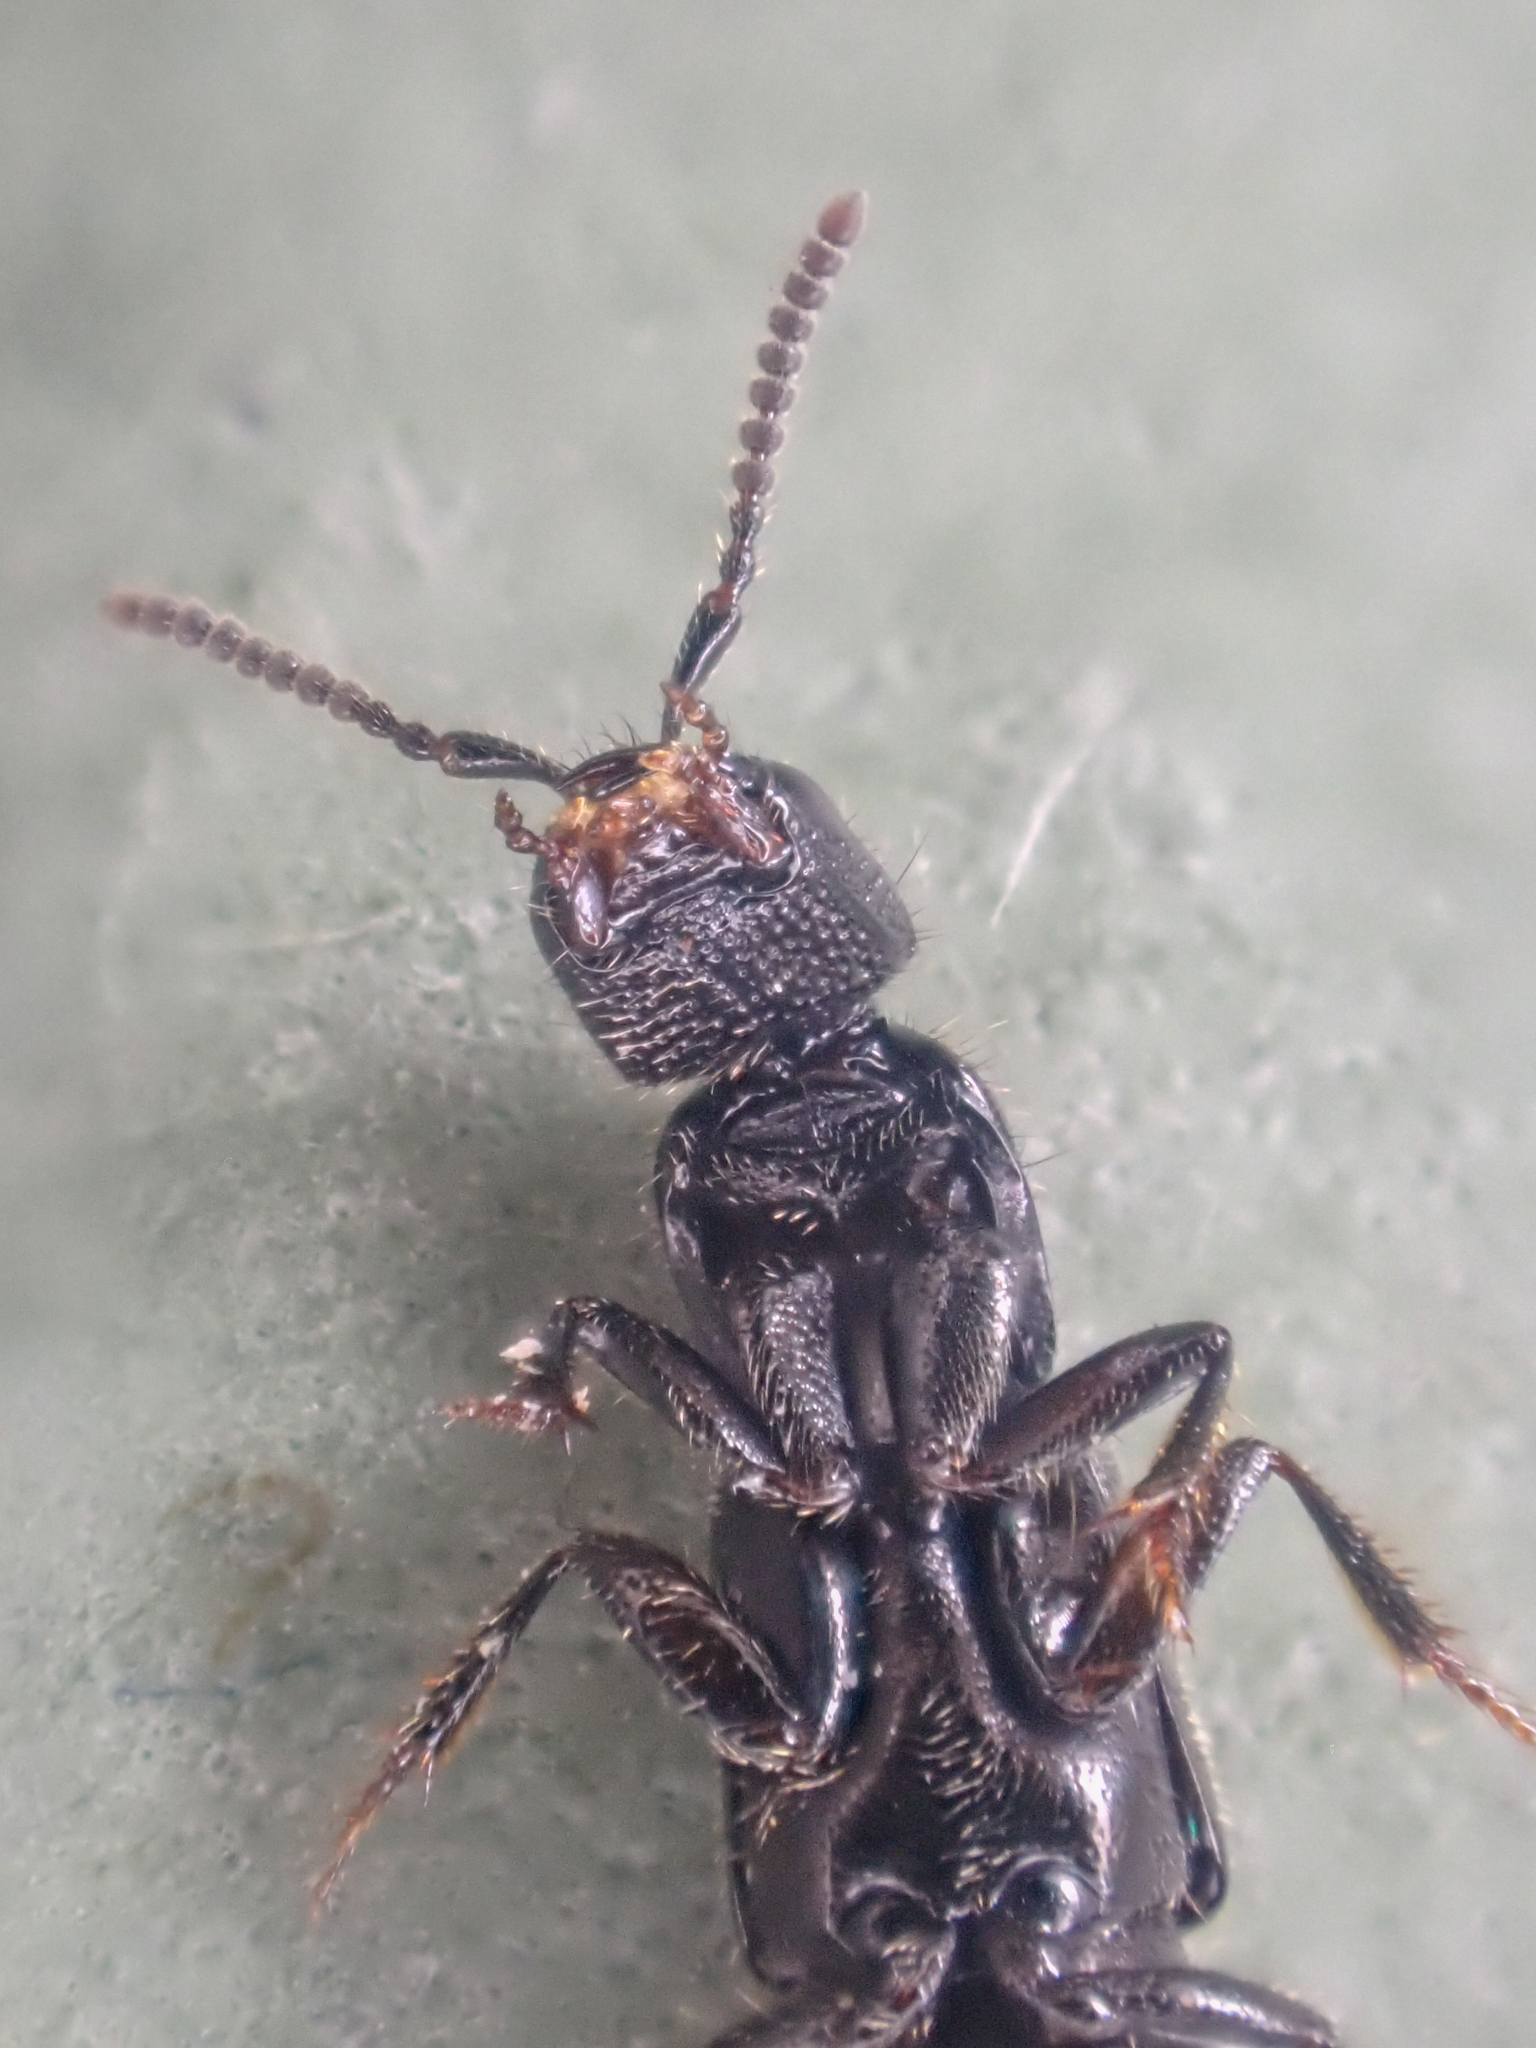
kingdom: Animalia
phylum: Arthropoda
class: Insecta
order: Coleoptera
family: Staphylinidae
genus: Gyrohypnus
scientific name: Gyrohypnus fracticornis
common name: Staph beetle
